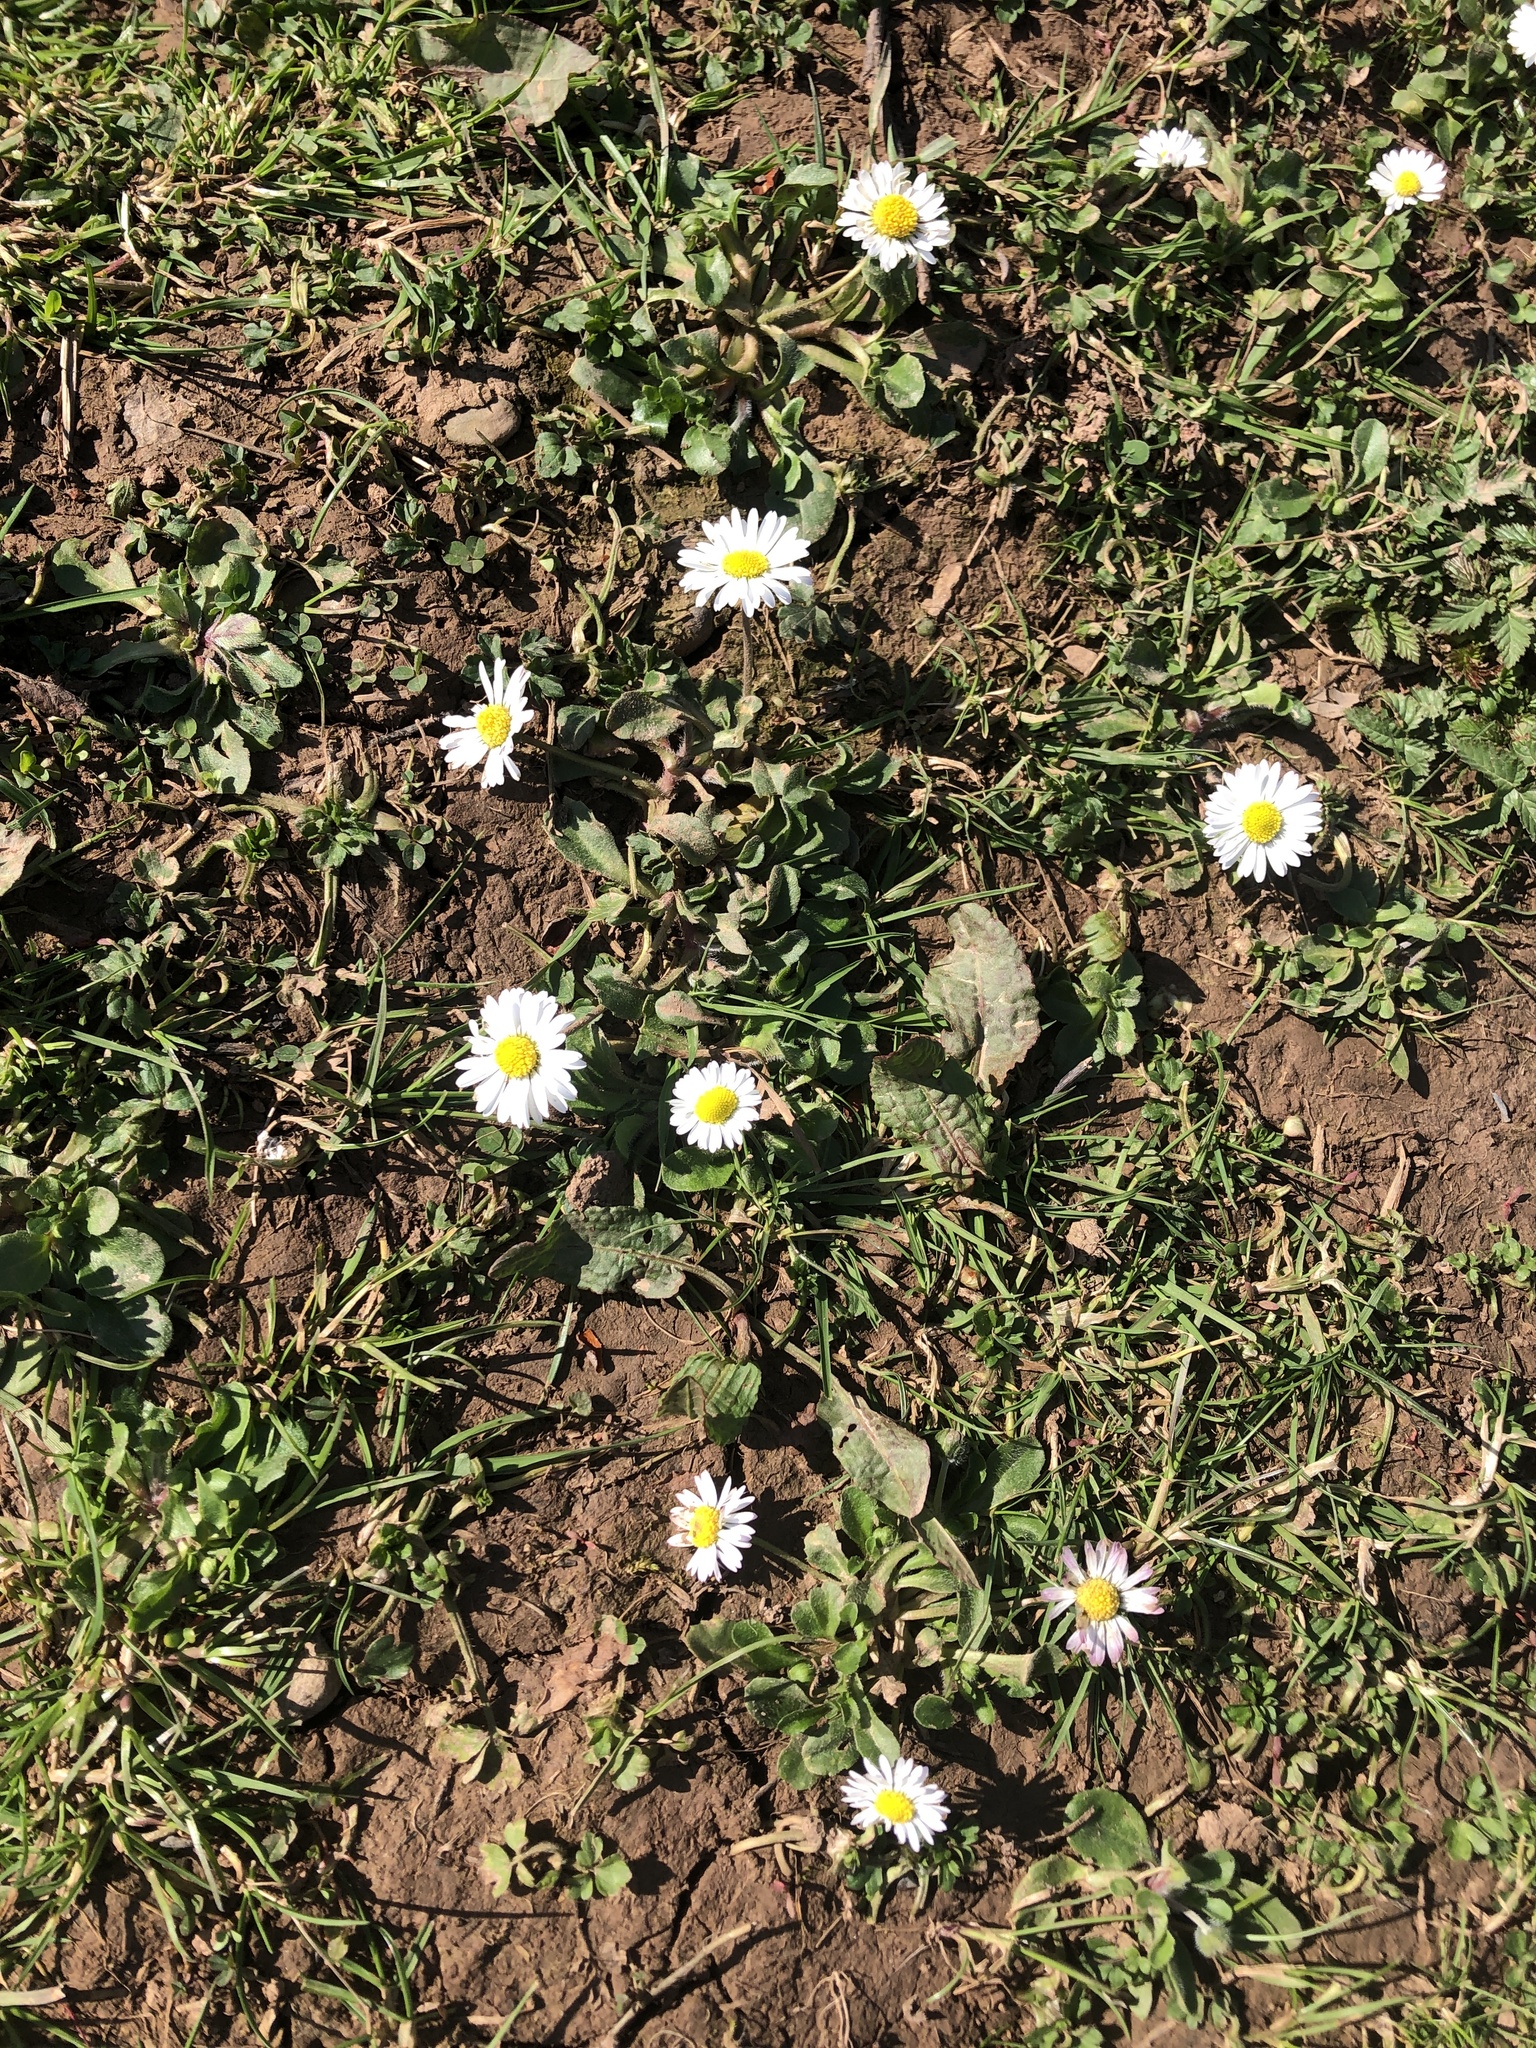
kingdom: Plantae
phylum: Tracheophyta
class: Magnoliopsida
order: Asterales
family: Asteraceae
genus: Bellis
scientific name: Bellis perennis
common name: Lawndaisy
